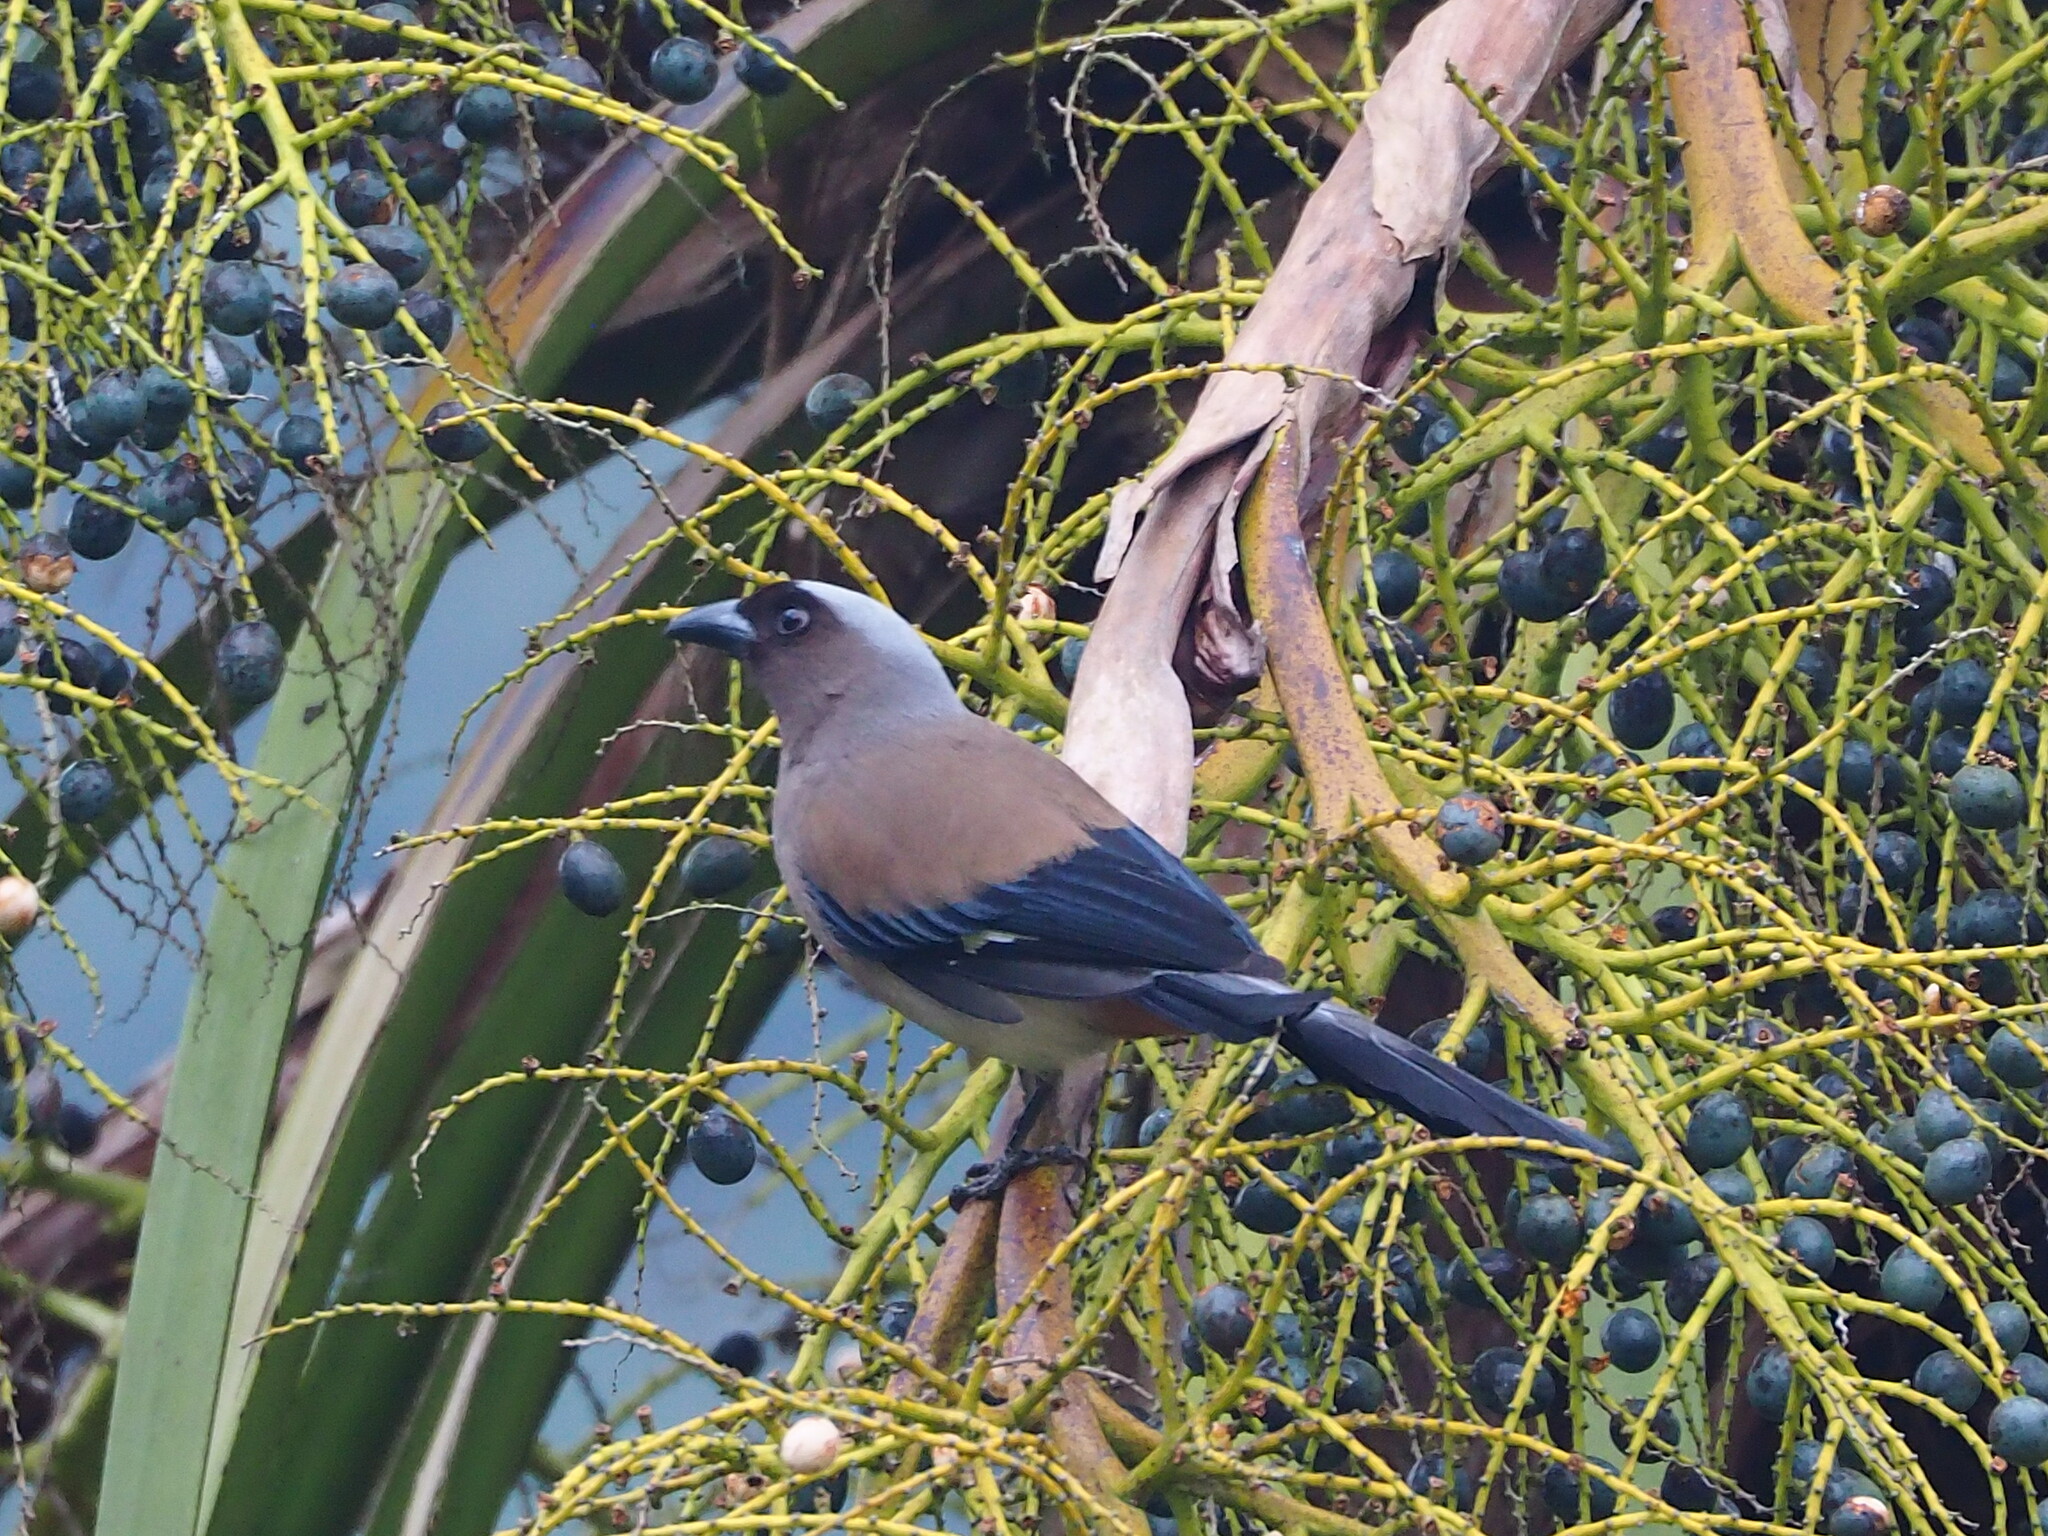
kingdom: Animalia
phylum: Chordata
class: Aves
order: Passeriformes
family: Corvidae
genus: Dendrocitta
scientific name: Dendrocitta formosae
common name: Grey treepie
